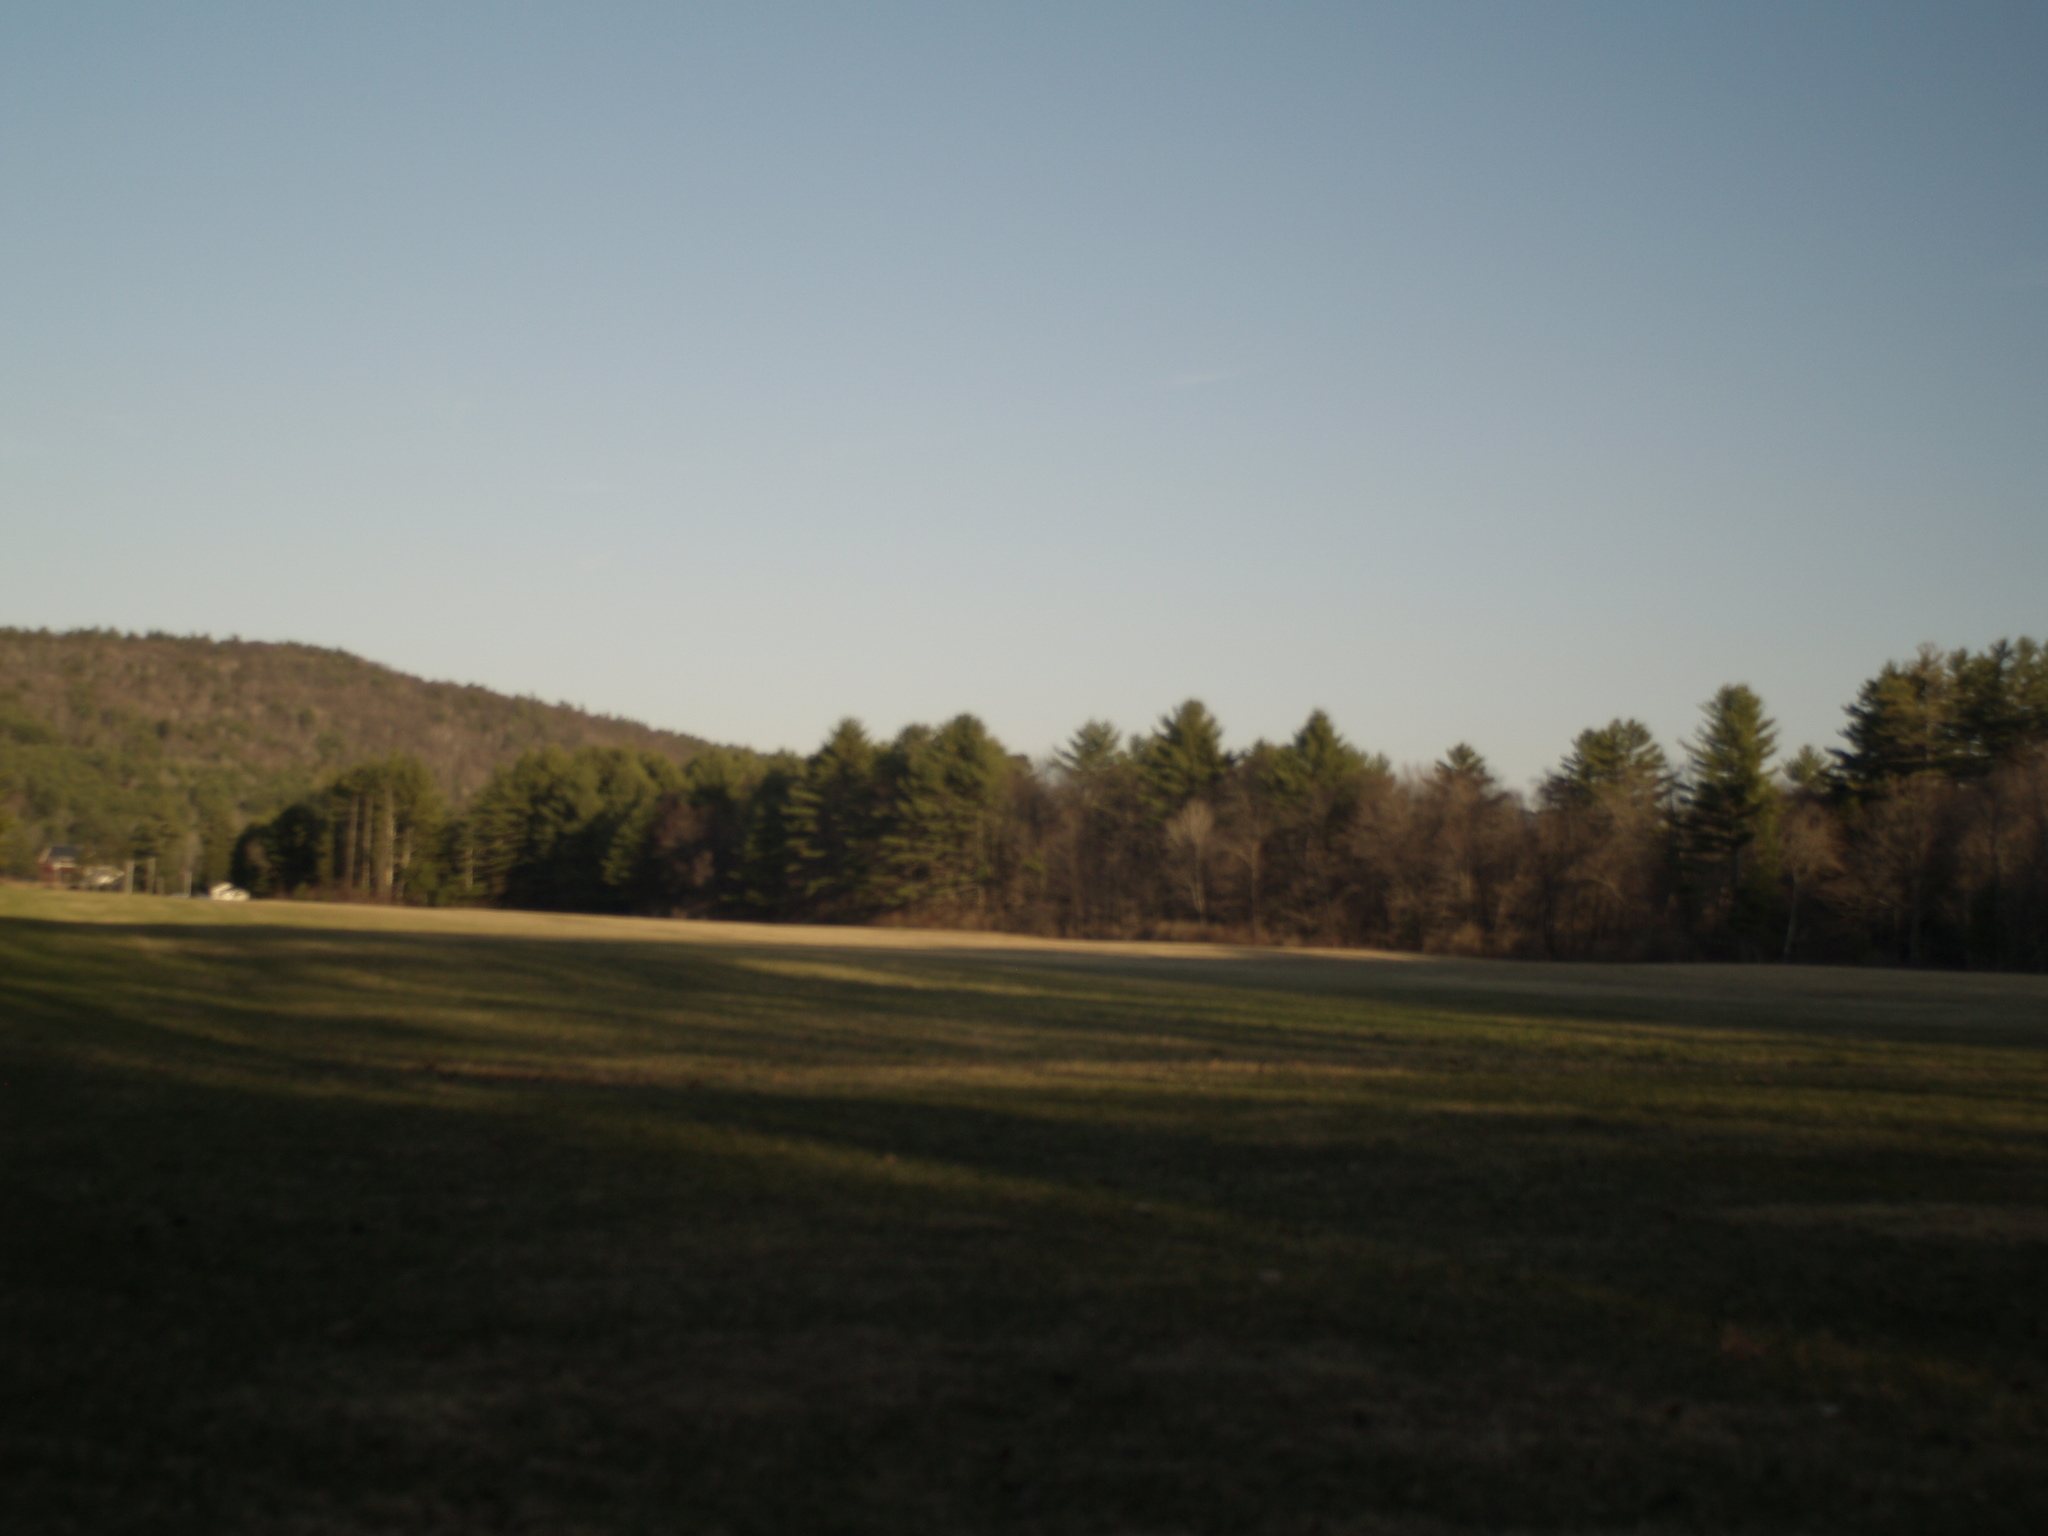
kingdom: Plantae
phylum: Tracheophyta
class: Pinopsida
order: Pinales
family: Pinaceae
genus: Pinus
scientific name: Pinus strobus
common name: Weymouth pine
